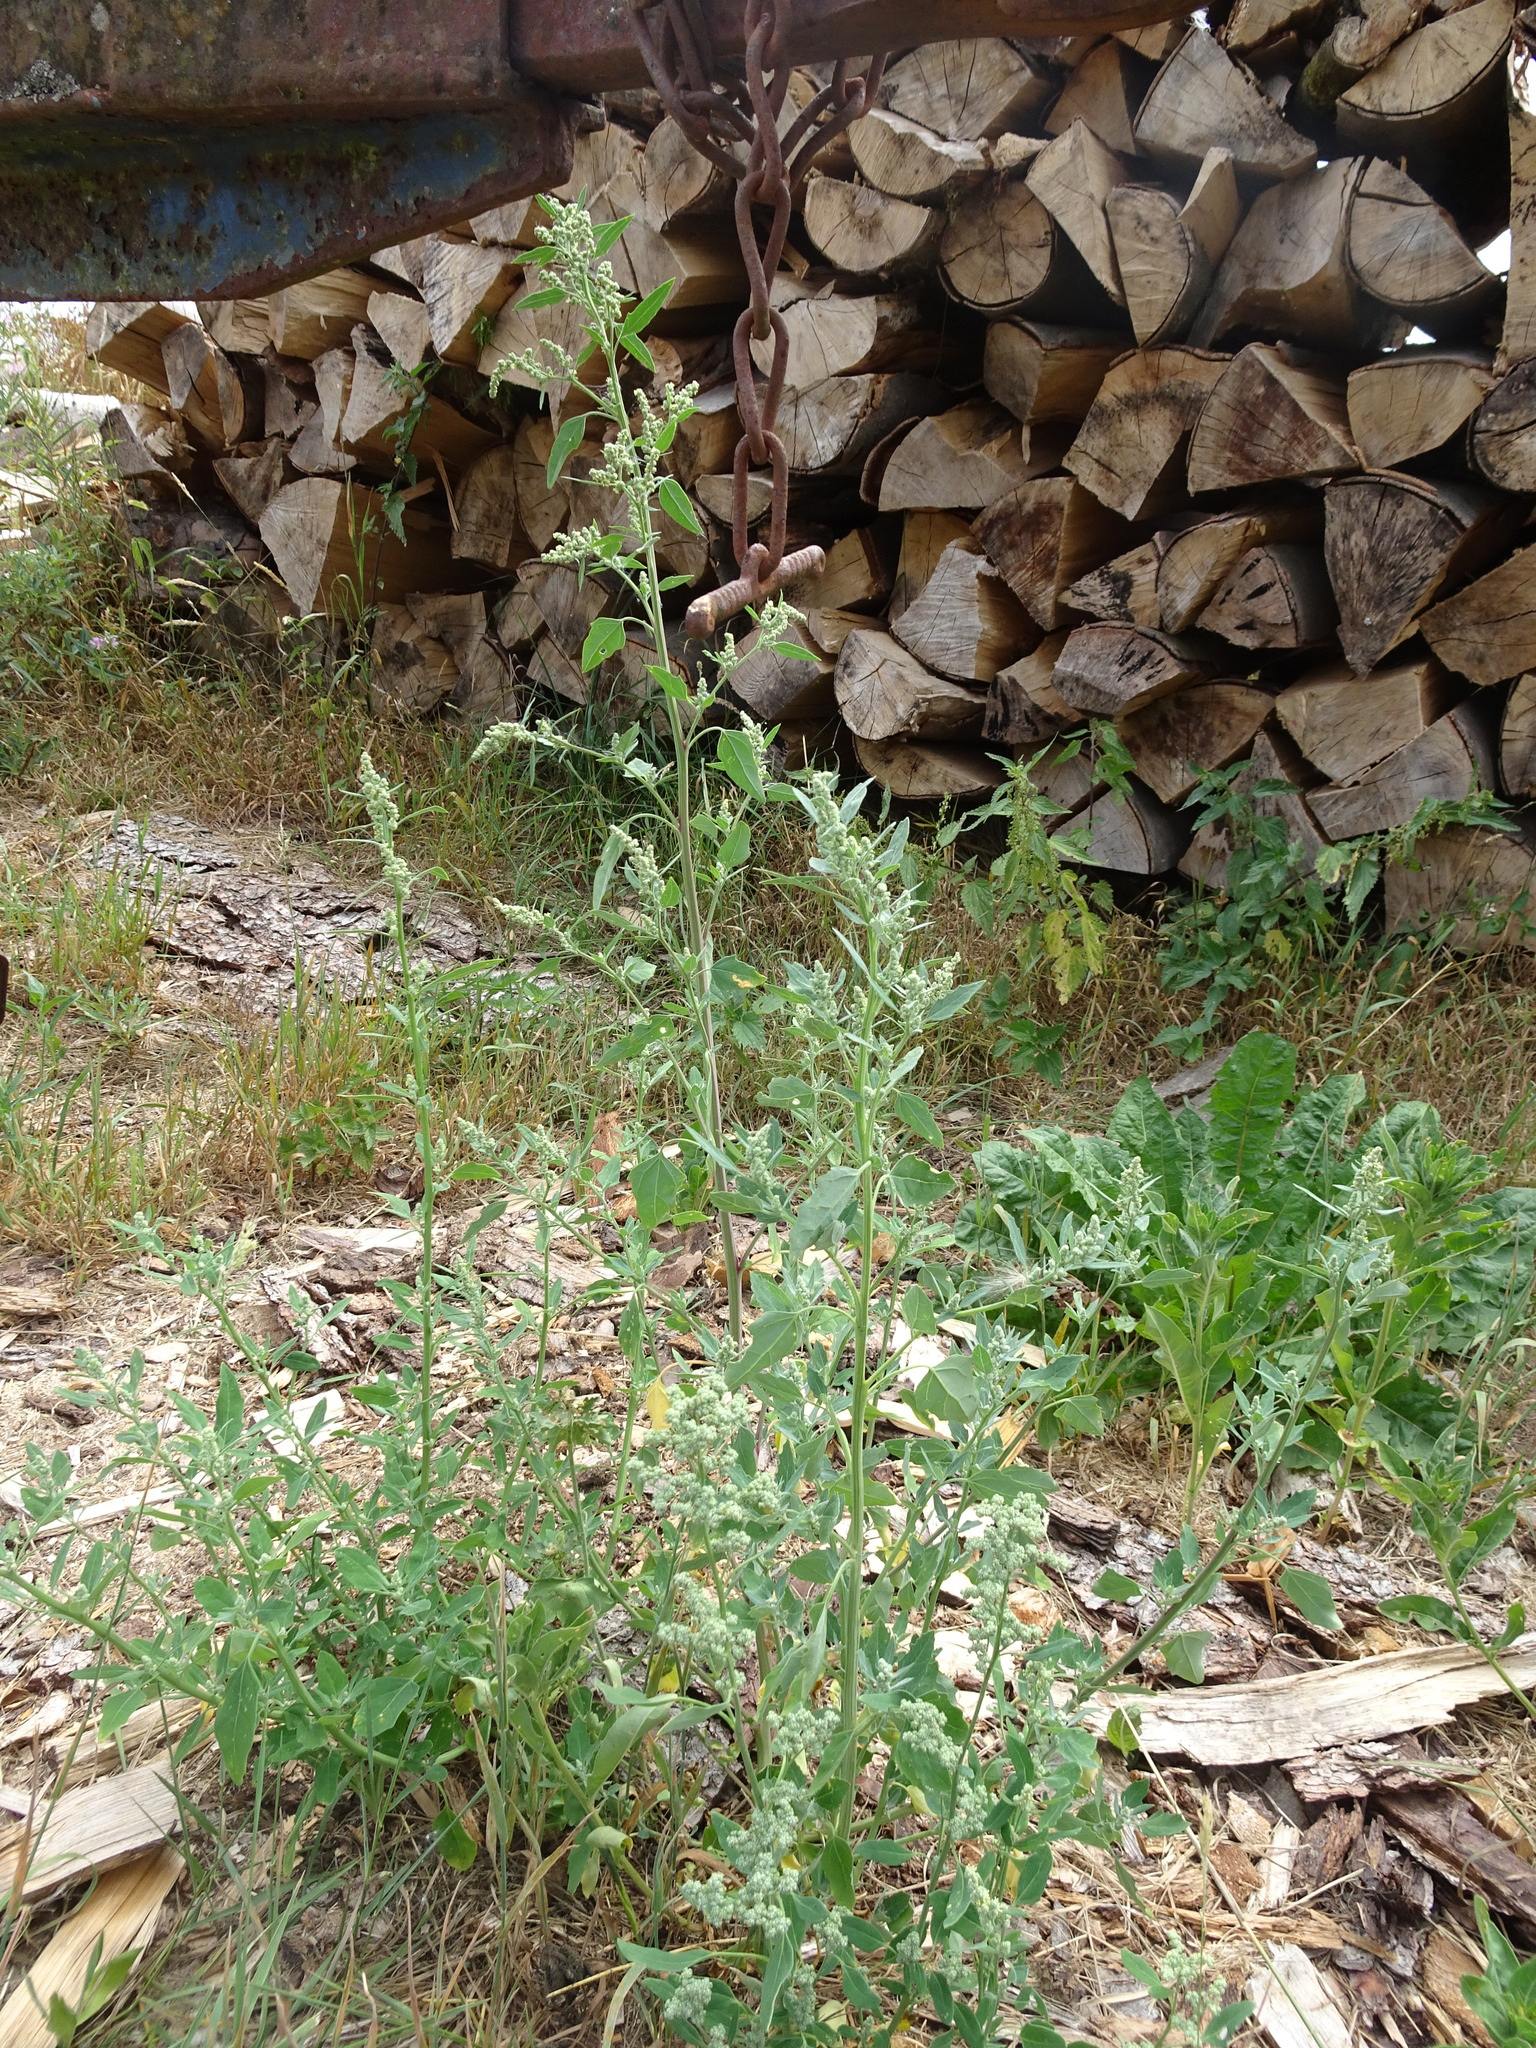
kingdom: Plantae
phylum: Tracheophyta
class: Magnoliopsida
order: Caryophyllales
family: Amaranthaceae
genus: Chenopodium
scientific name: Chenopodium album
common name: Fat-hen
